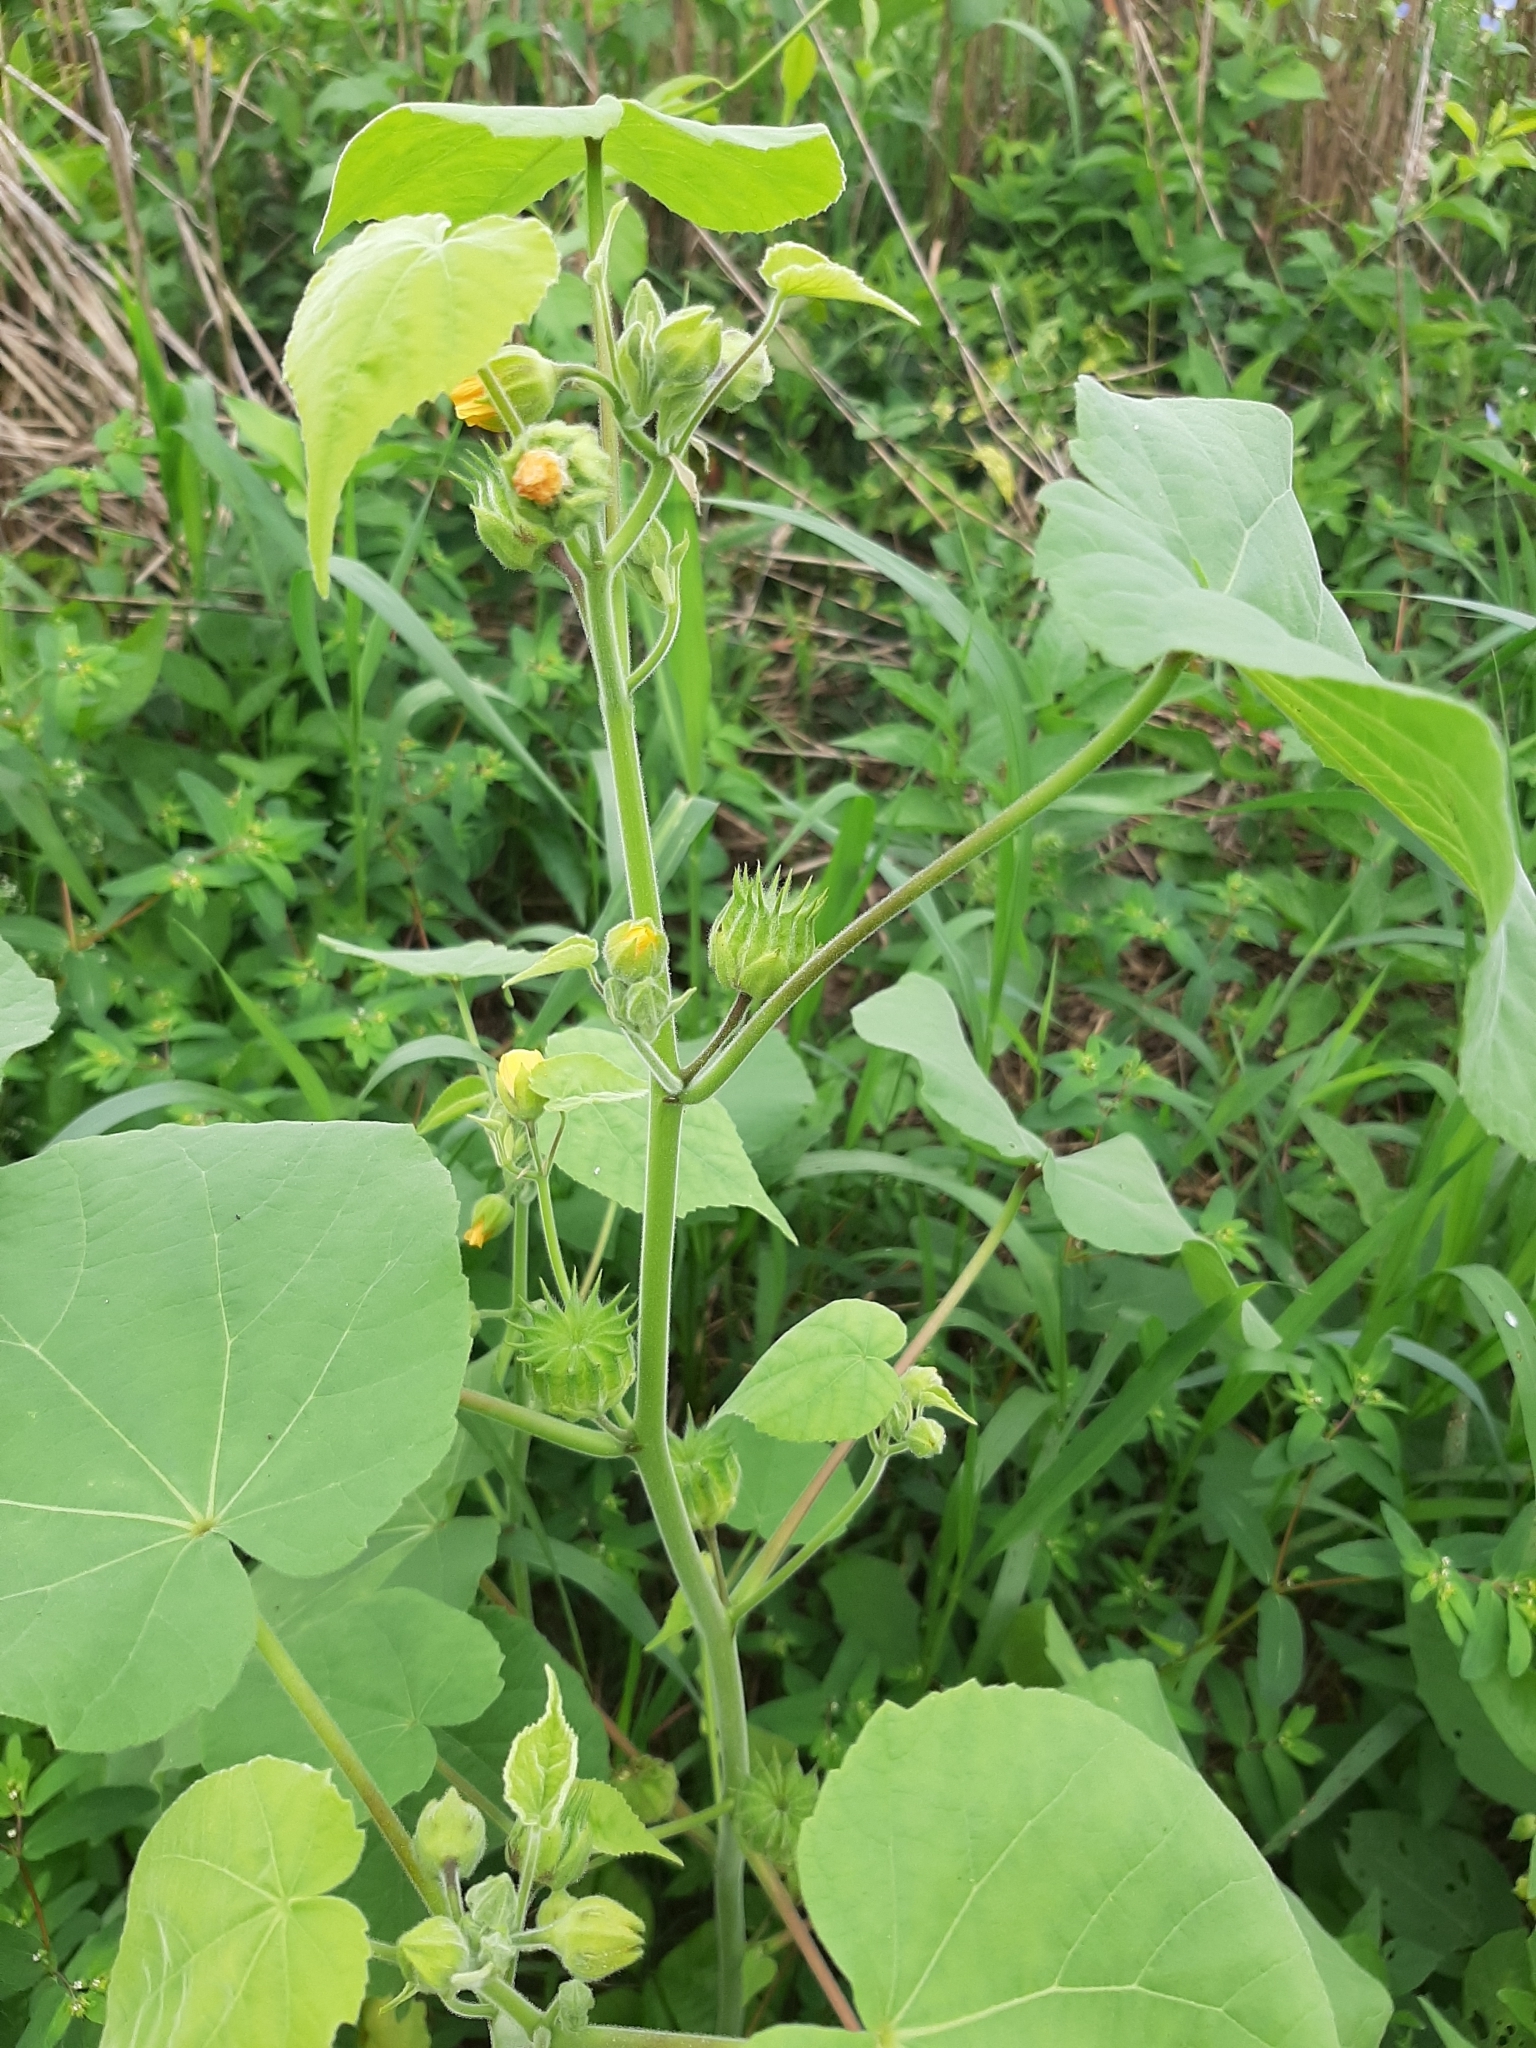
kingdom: Plantae
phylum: Tracheophyta
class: Magnoliopsida
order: Malvales
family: Malvaceae
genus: Abutilon
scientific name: Abutilon theophrasti
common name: Velvetleaf
